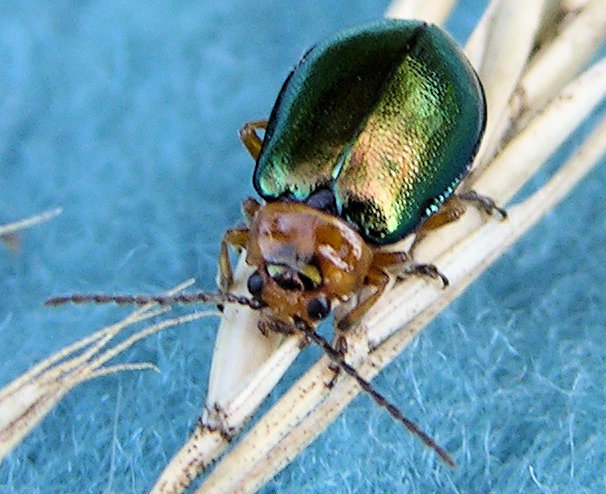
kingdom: Animalia
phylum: Arthropoda
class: Insecta
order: Coleoptera
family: Chrysomelidae
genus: Sermylassa
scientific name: Sermylassa halensis
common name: Leaf beetle
